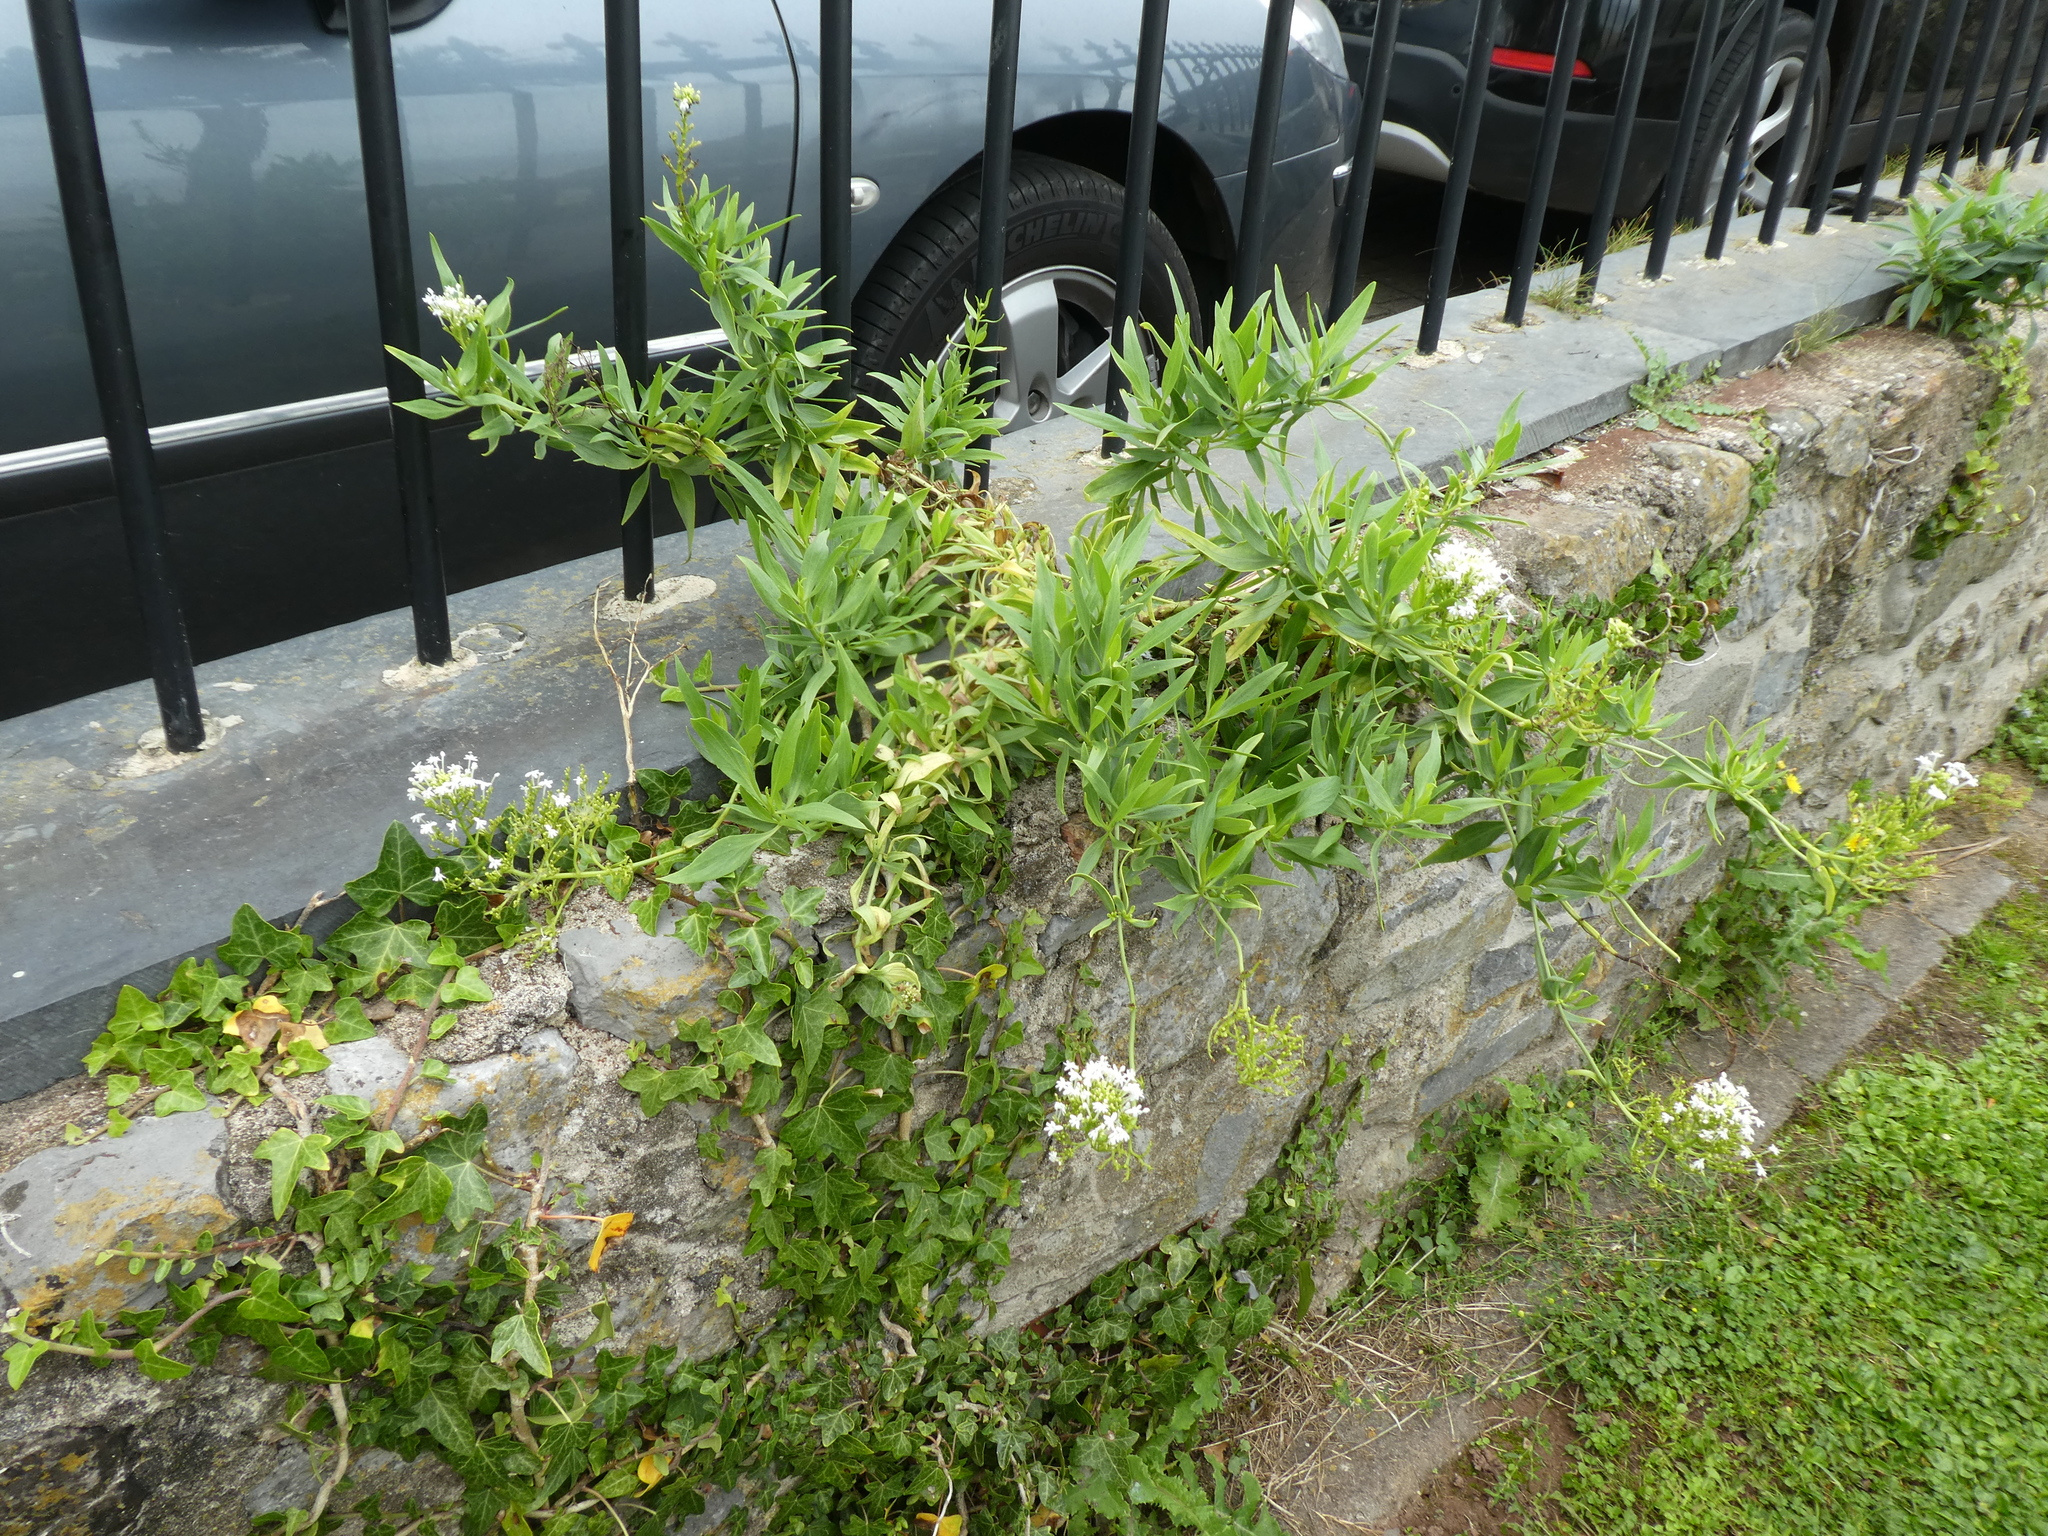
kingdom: Plantae
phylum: Tracheophyta
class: Magnoliopsida
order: Dipsacales
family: Caprifoliaceae
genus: Centranthus
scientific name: Centranthus ruber
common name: Red valerian
